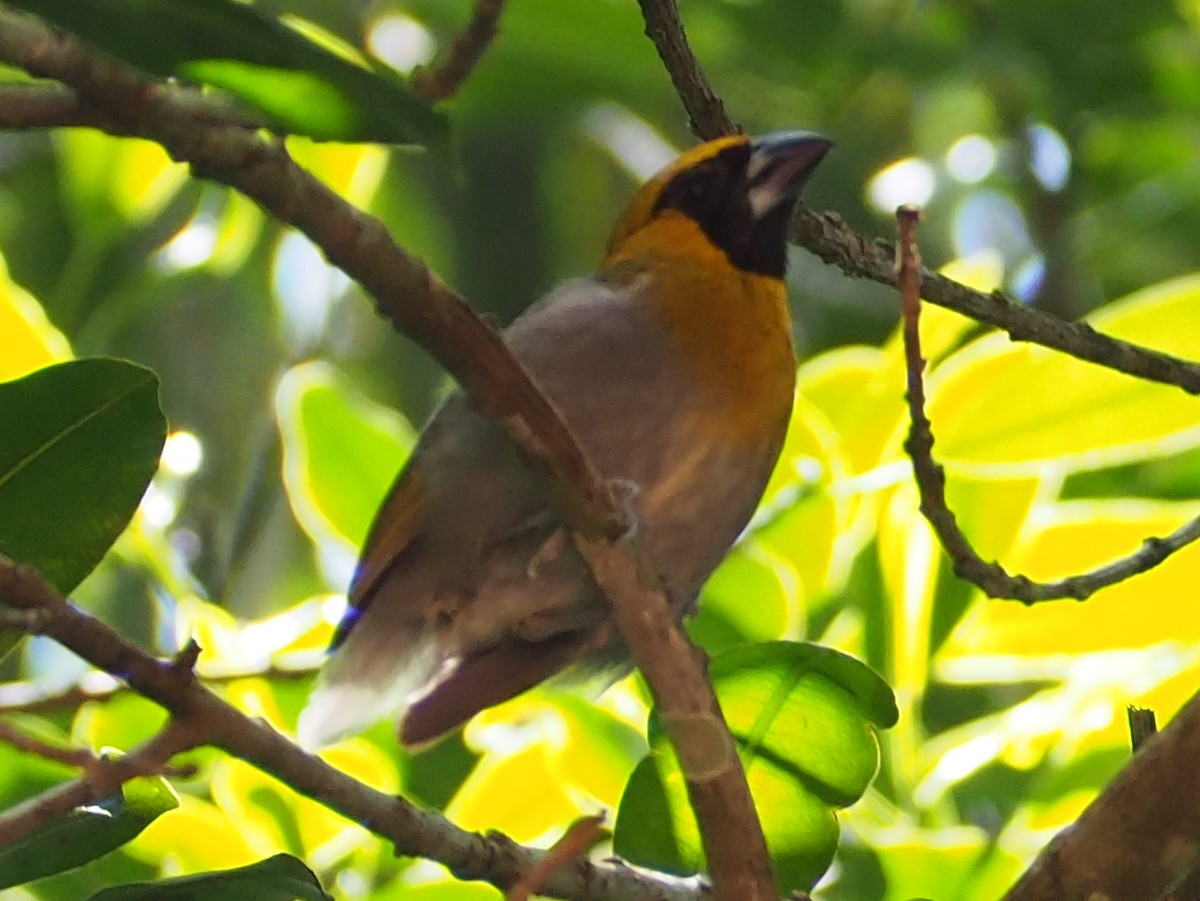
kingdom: Animalia
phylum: Chordata
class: Aves
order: Passeriformes
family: Cardinalidae
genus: Caryothraustes
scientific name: Caryothraustes poliogaster
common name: Black-faced grosbeak
